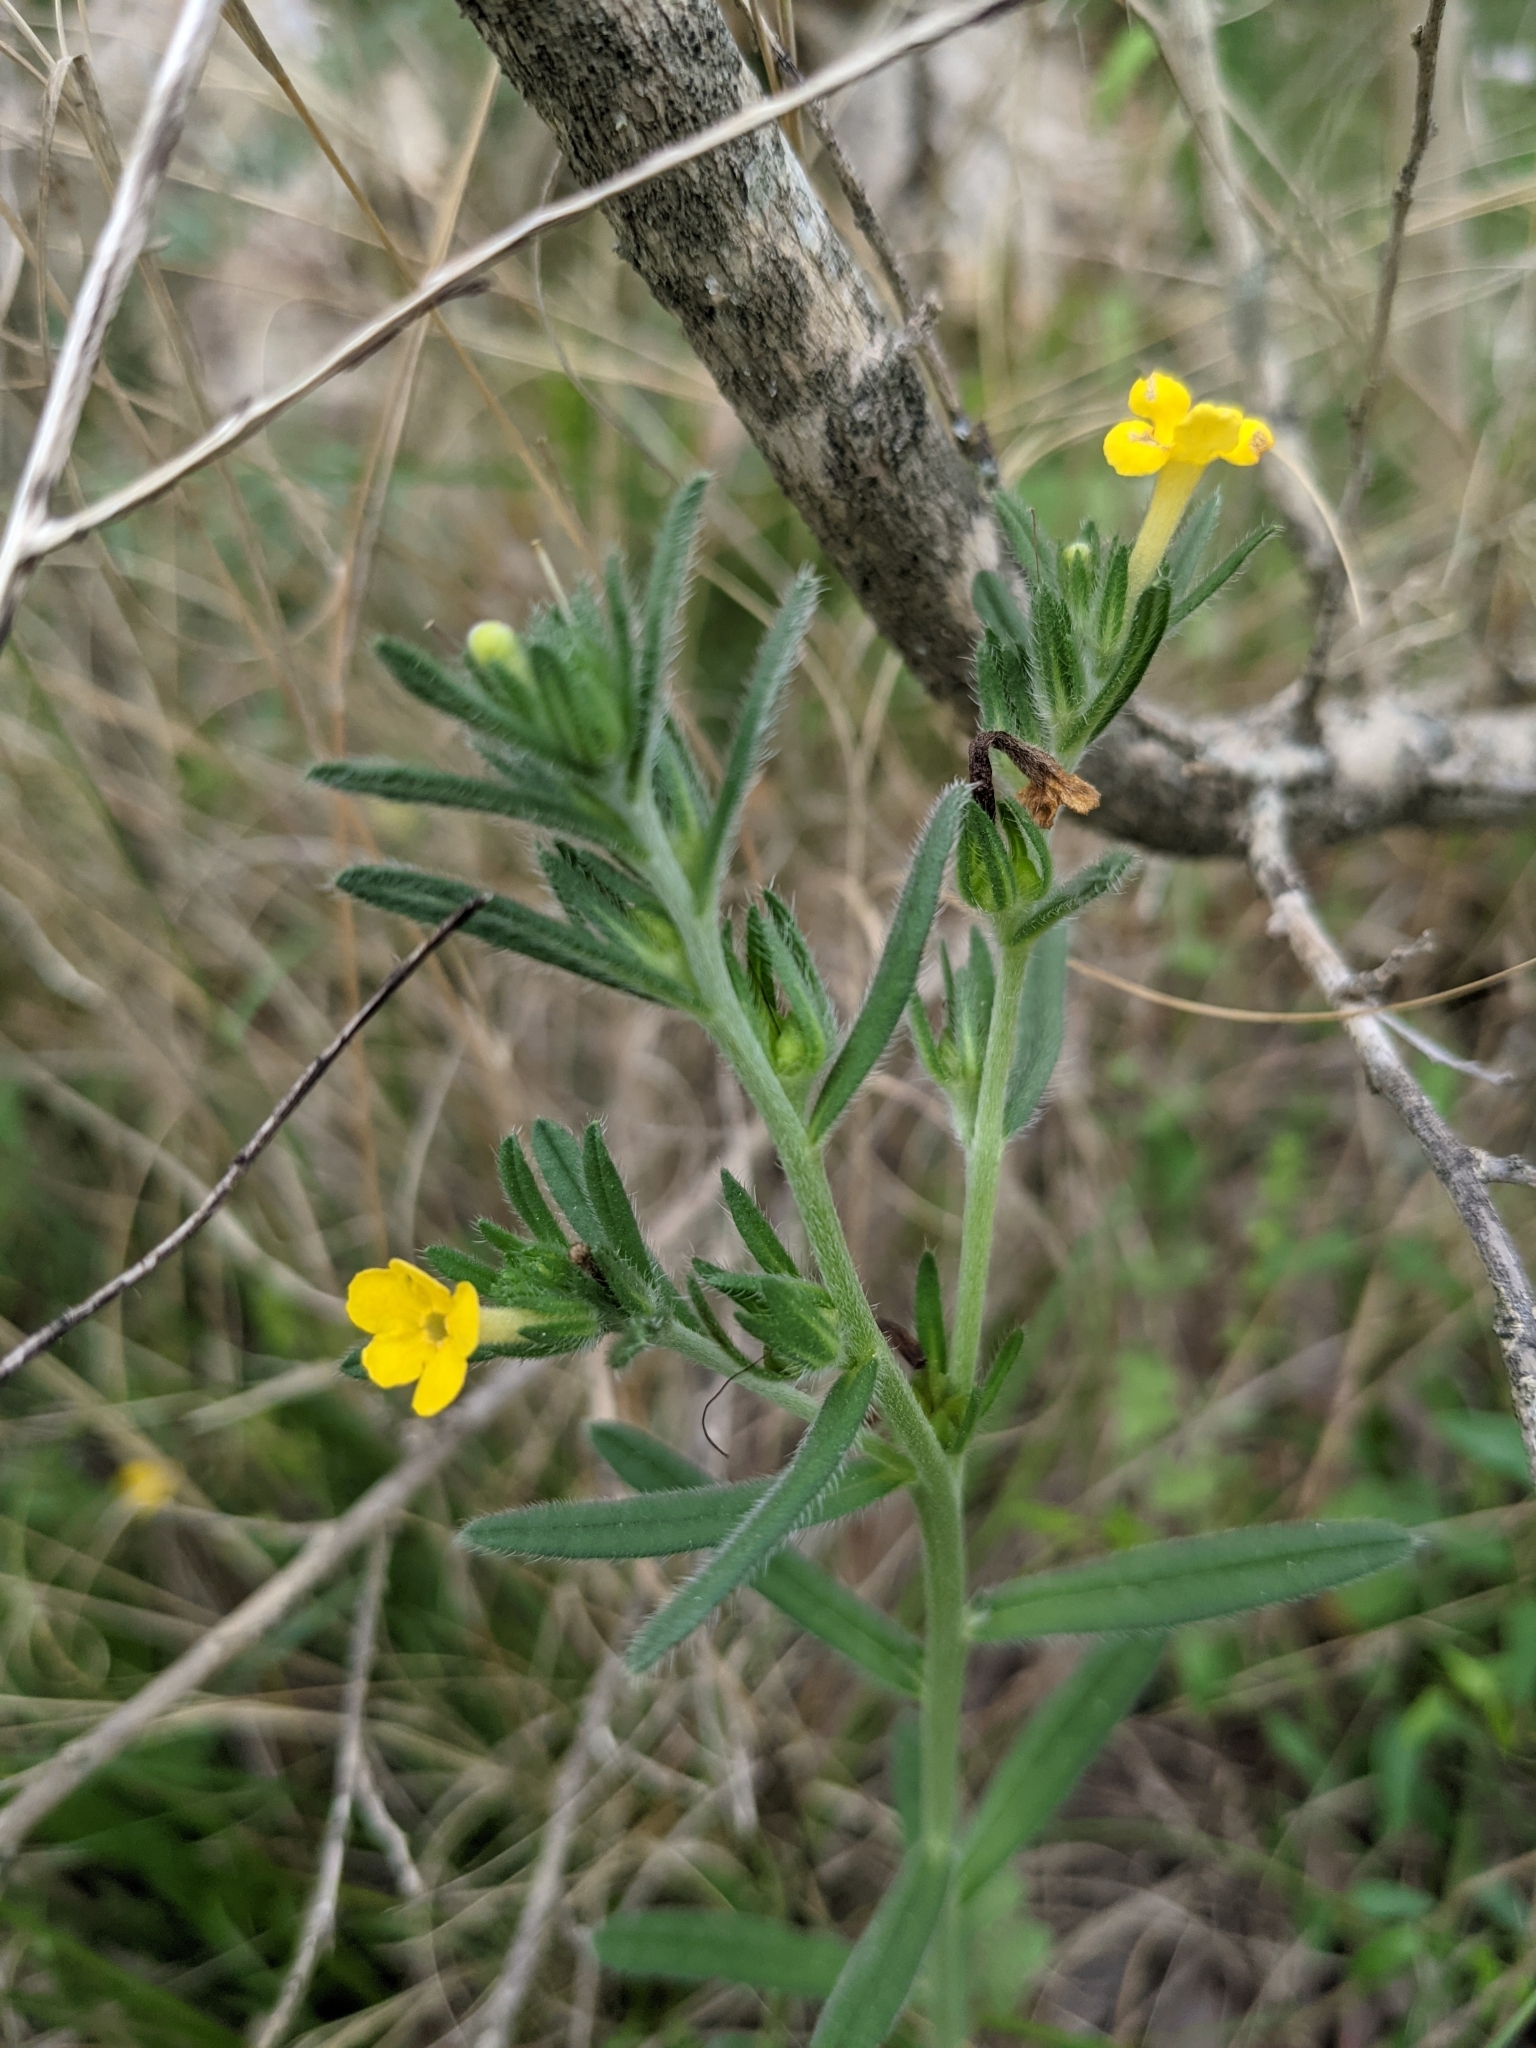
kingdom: Plantae
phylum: Tracheophyta
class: Magnoliopsida
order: Boraginales
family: Boraginaceae
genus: Lithospermum
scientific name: Lithospermum mirabile
